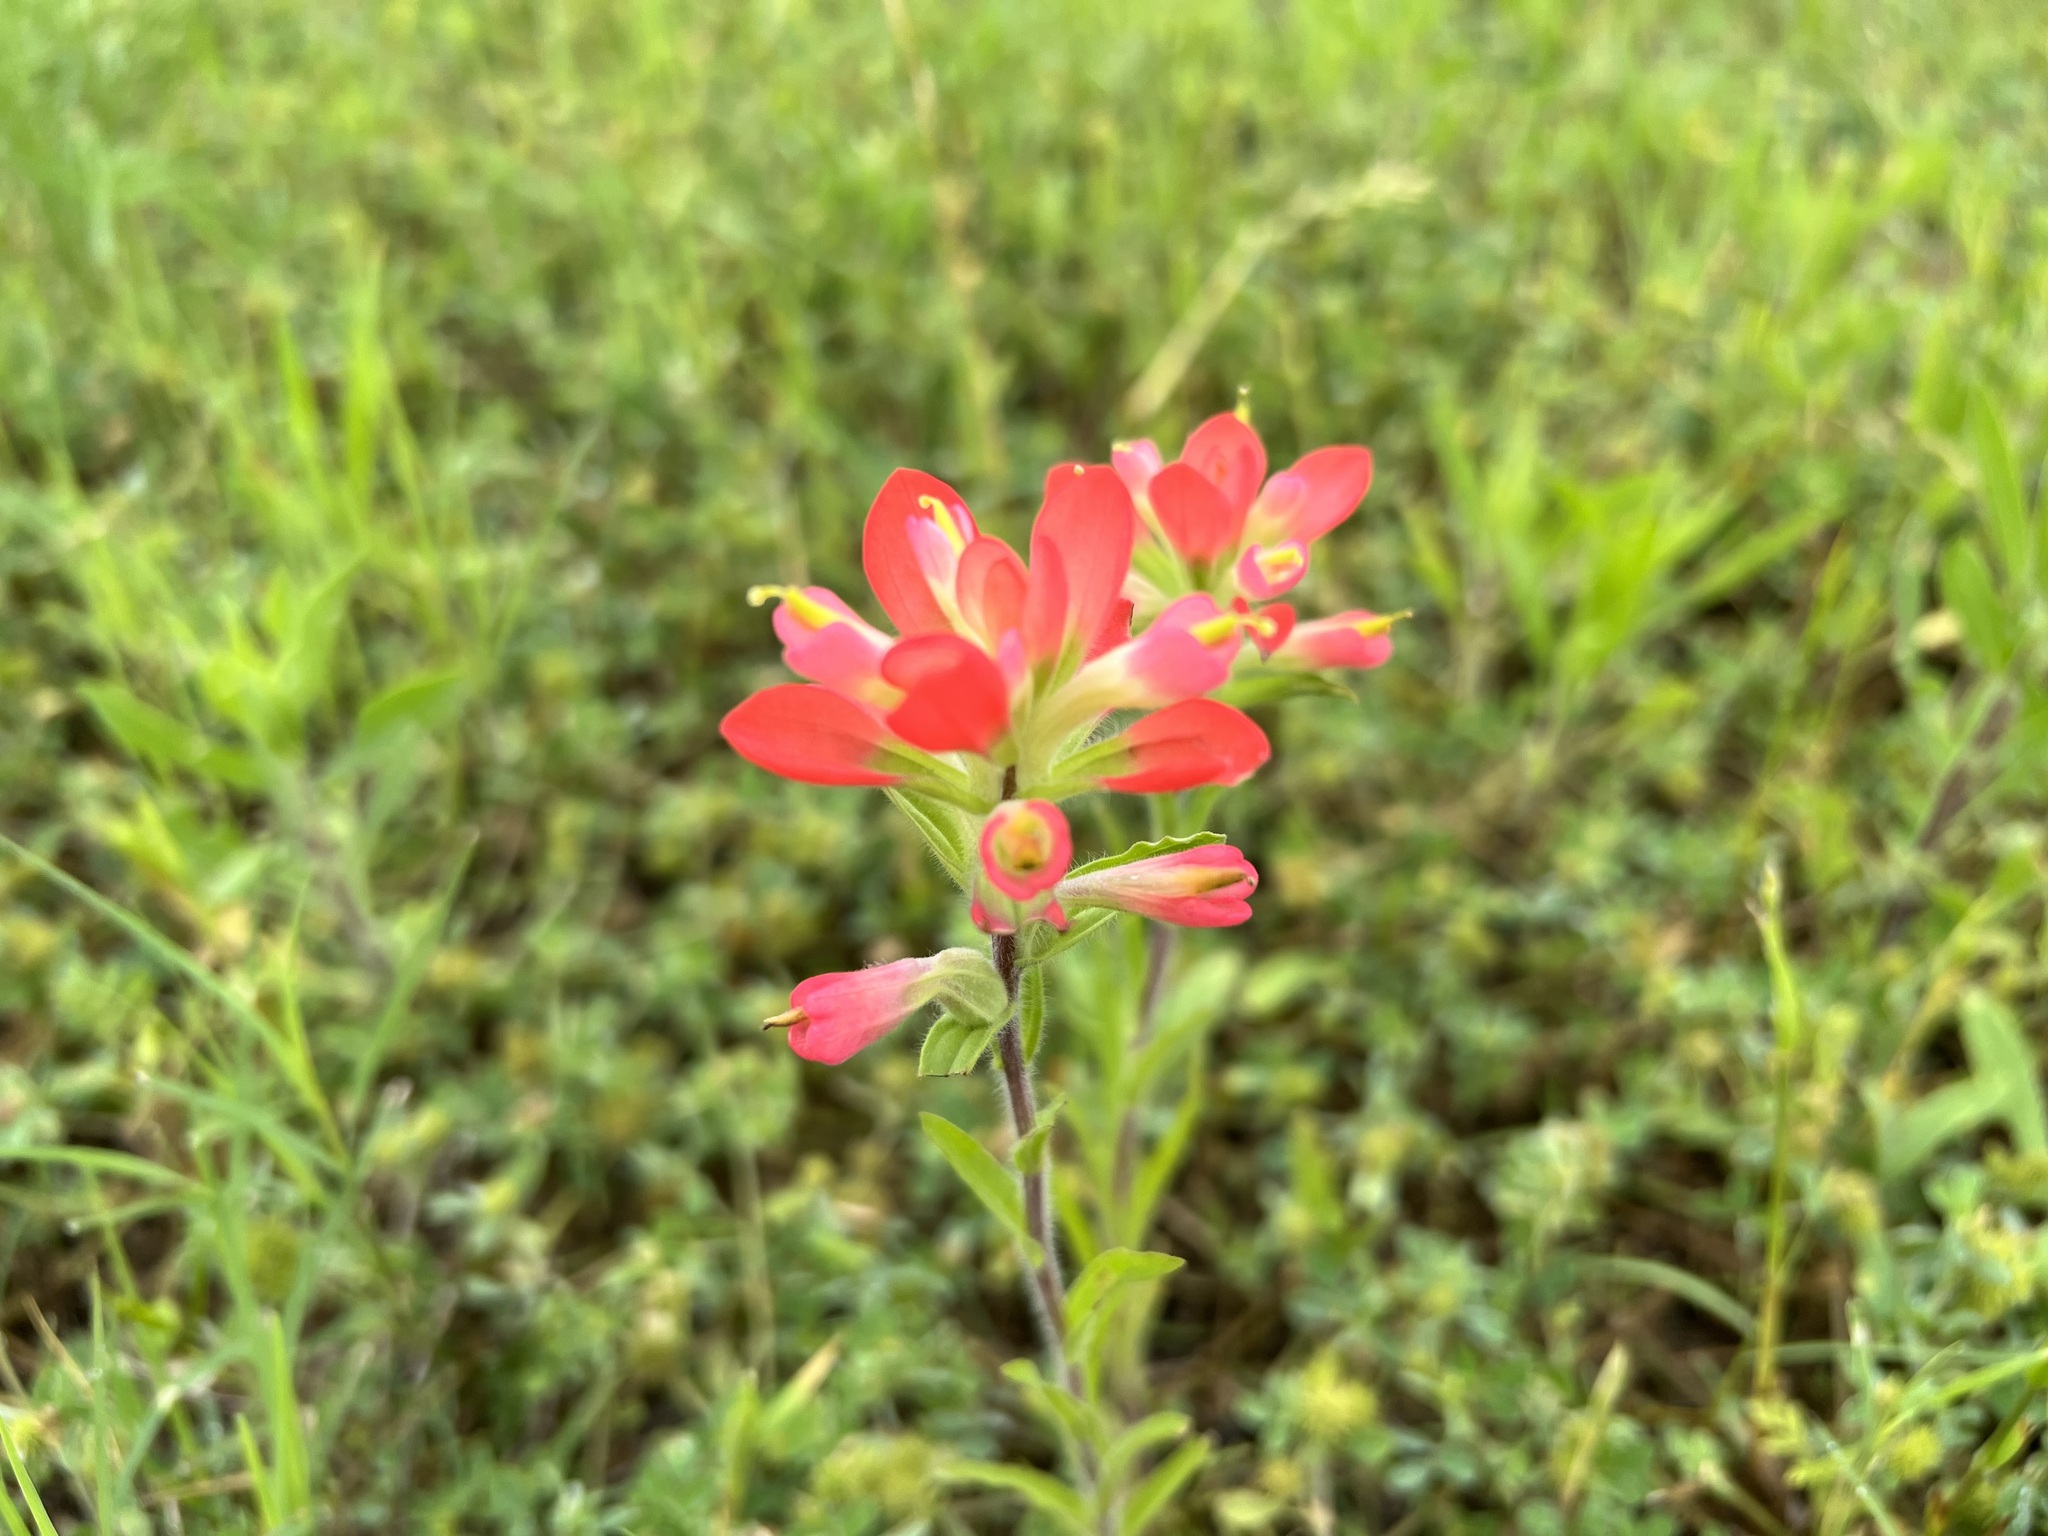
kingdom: Plantae
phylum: Tracheophyta
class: Magnoliopsida
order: Lamiales
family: Orobanchaceae
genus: Castilleja
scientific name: Castilleja indivisa
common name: Texas paintbrush
